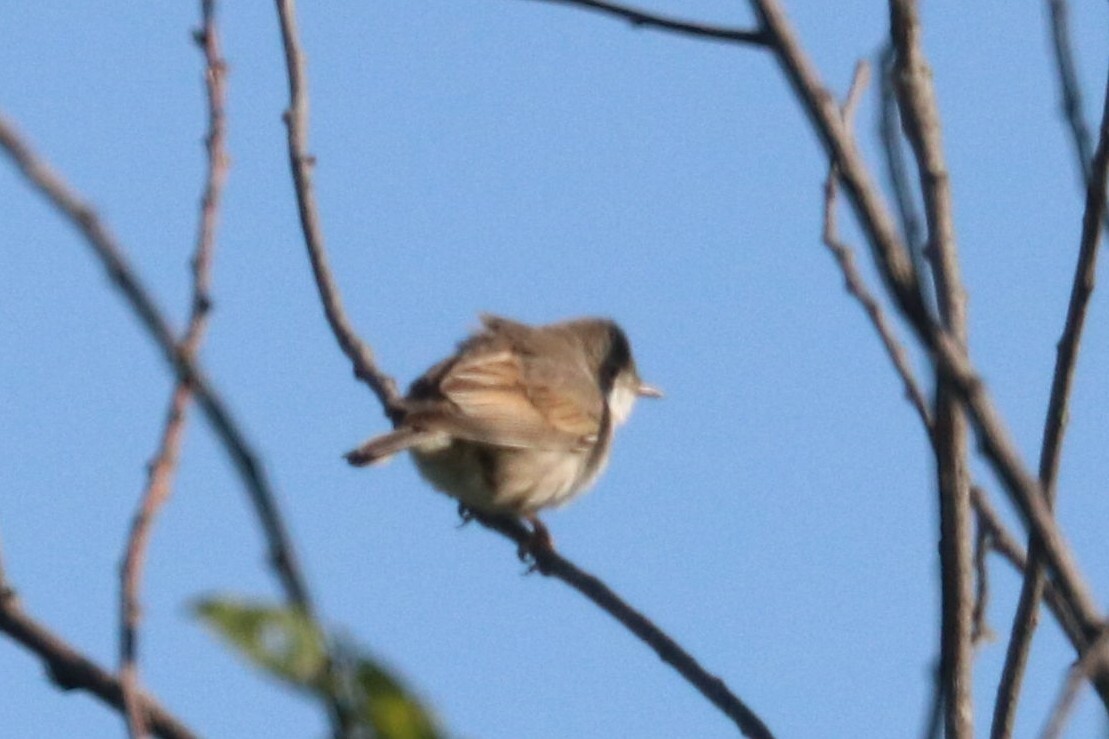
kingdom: Animalia
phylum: Chordata
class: Aves
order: Passeriformes
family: Sylviidae
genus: Sylvia
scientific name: Sylvia communis
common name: Common whitethroat
